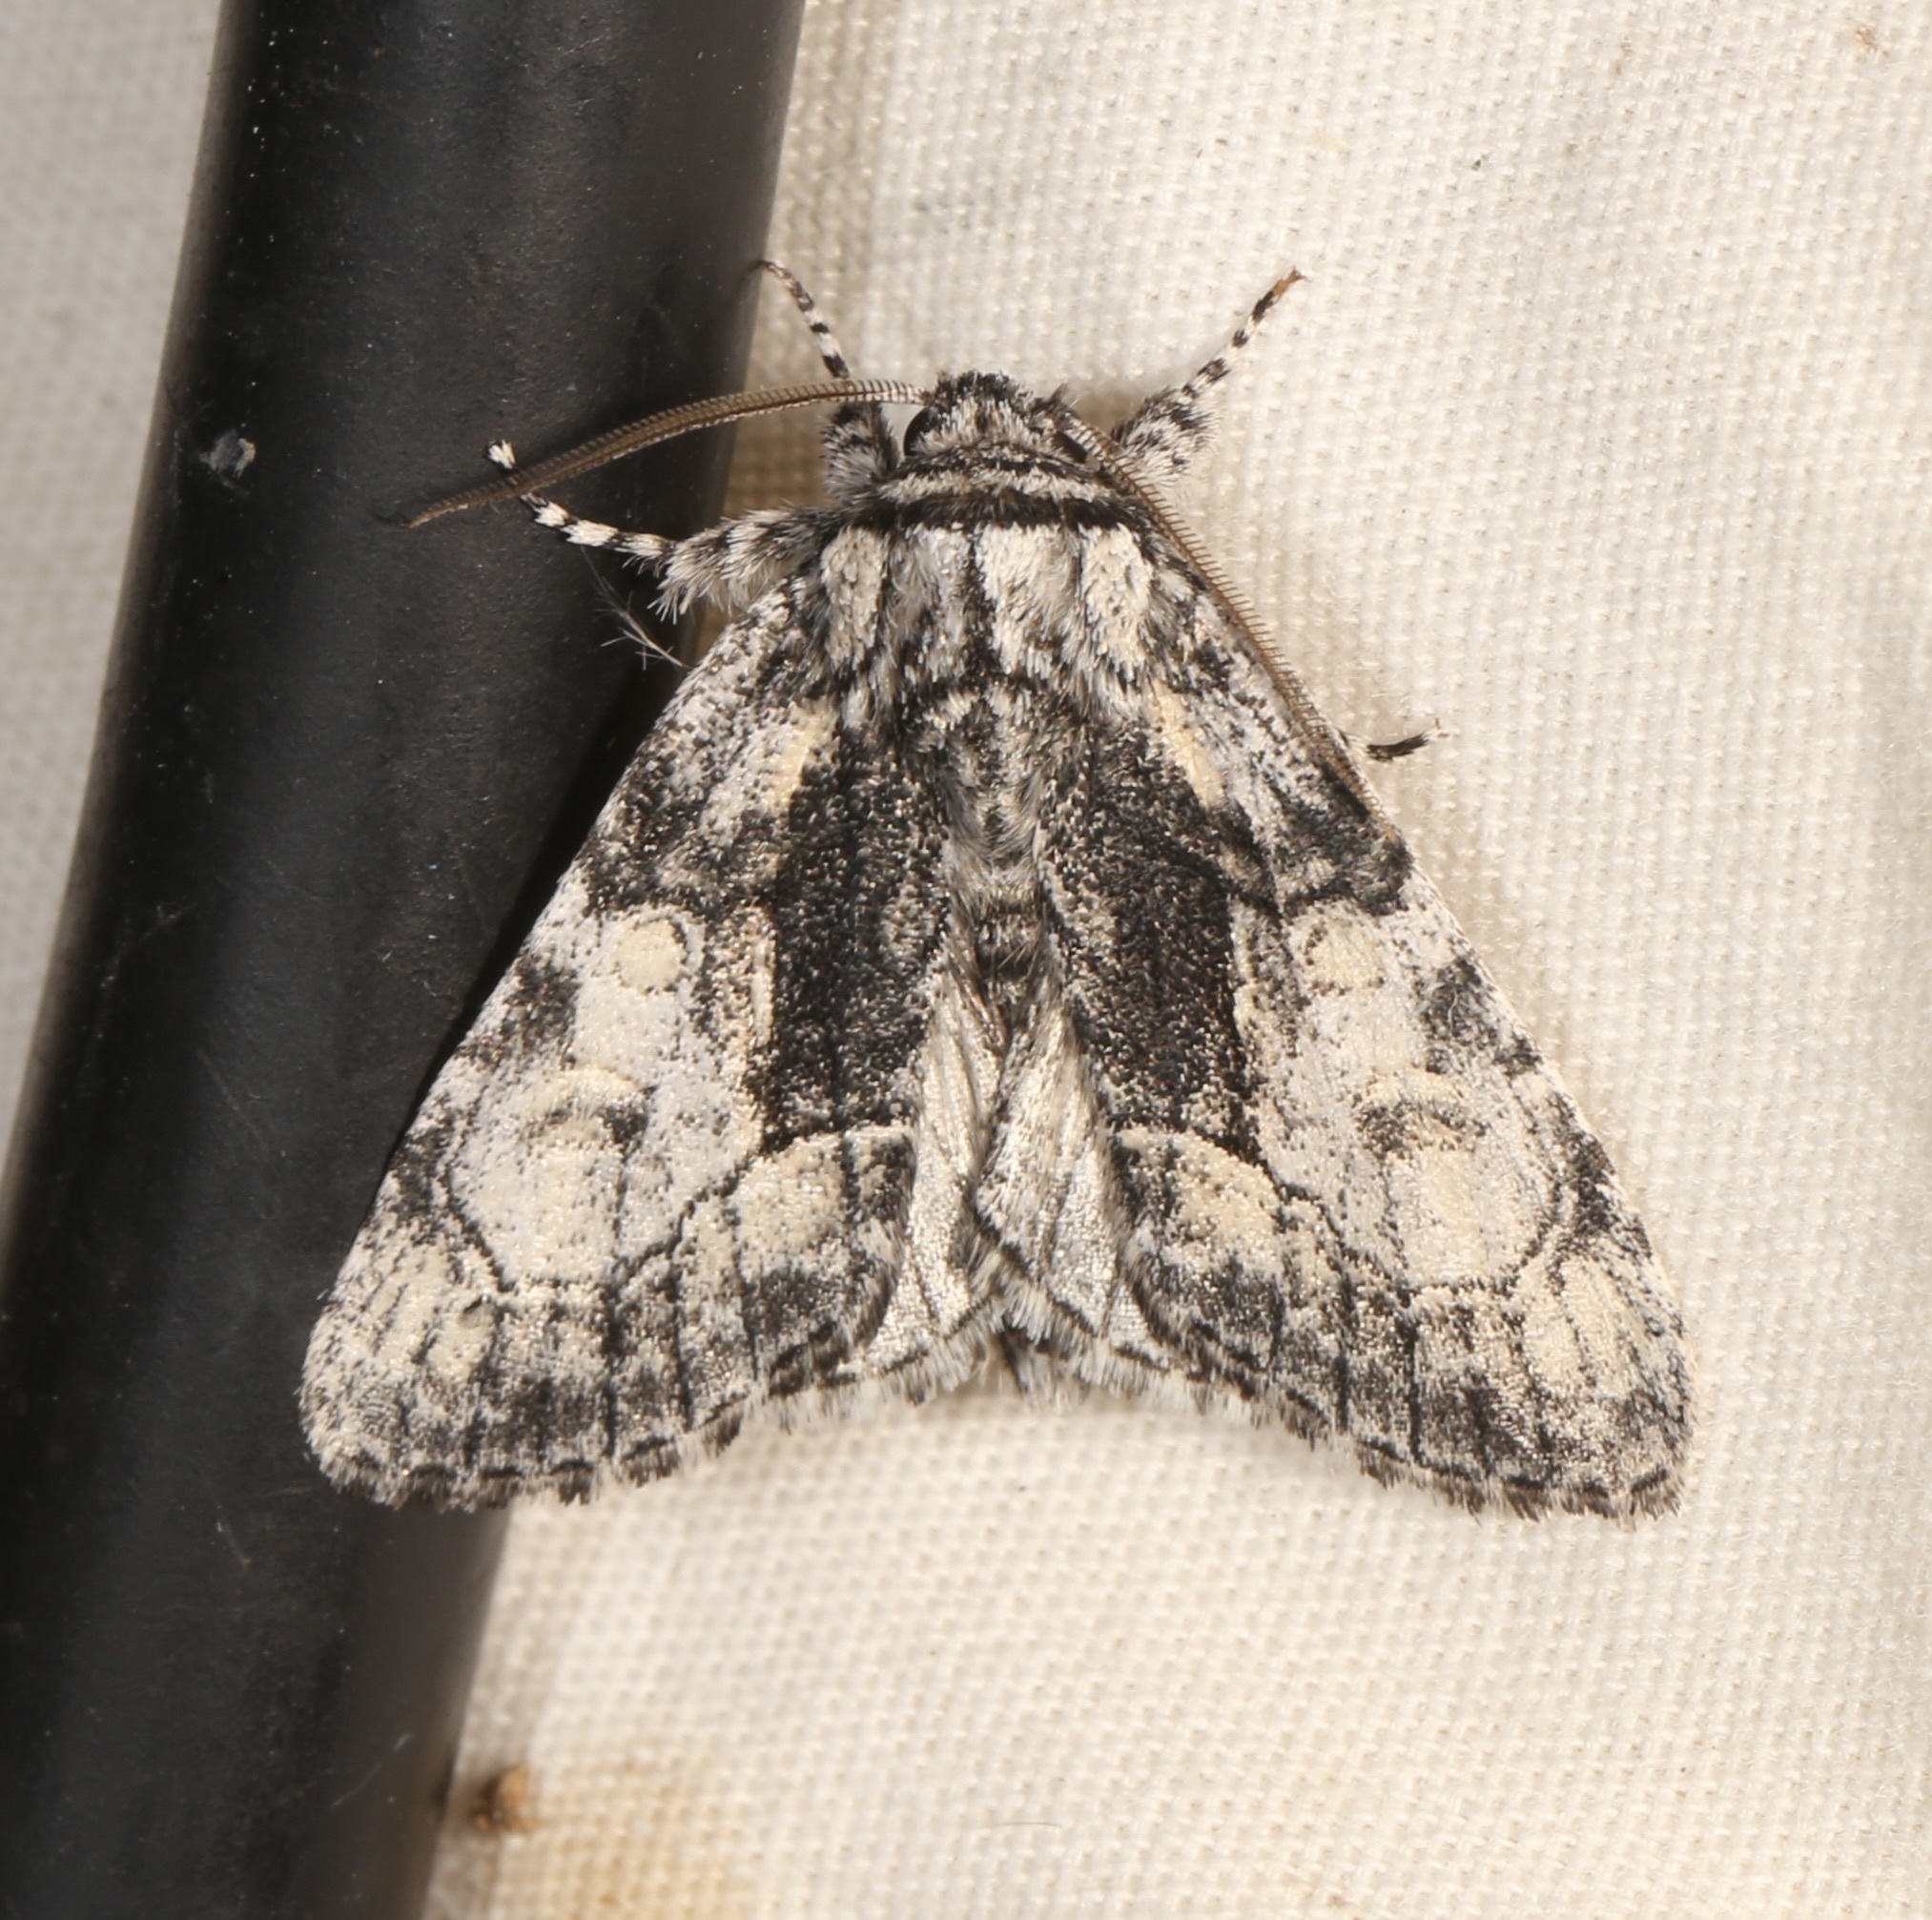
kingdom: Animalia
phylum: Arthropoda
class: Insecta
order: Lepidoptera
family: Noctuidae
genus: Raphia
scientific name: Raphia frater
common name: Brother
